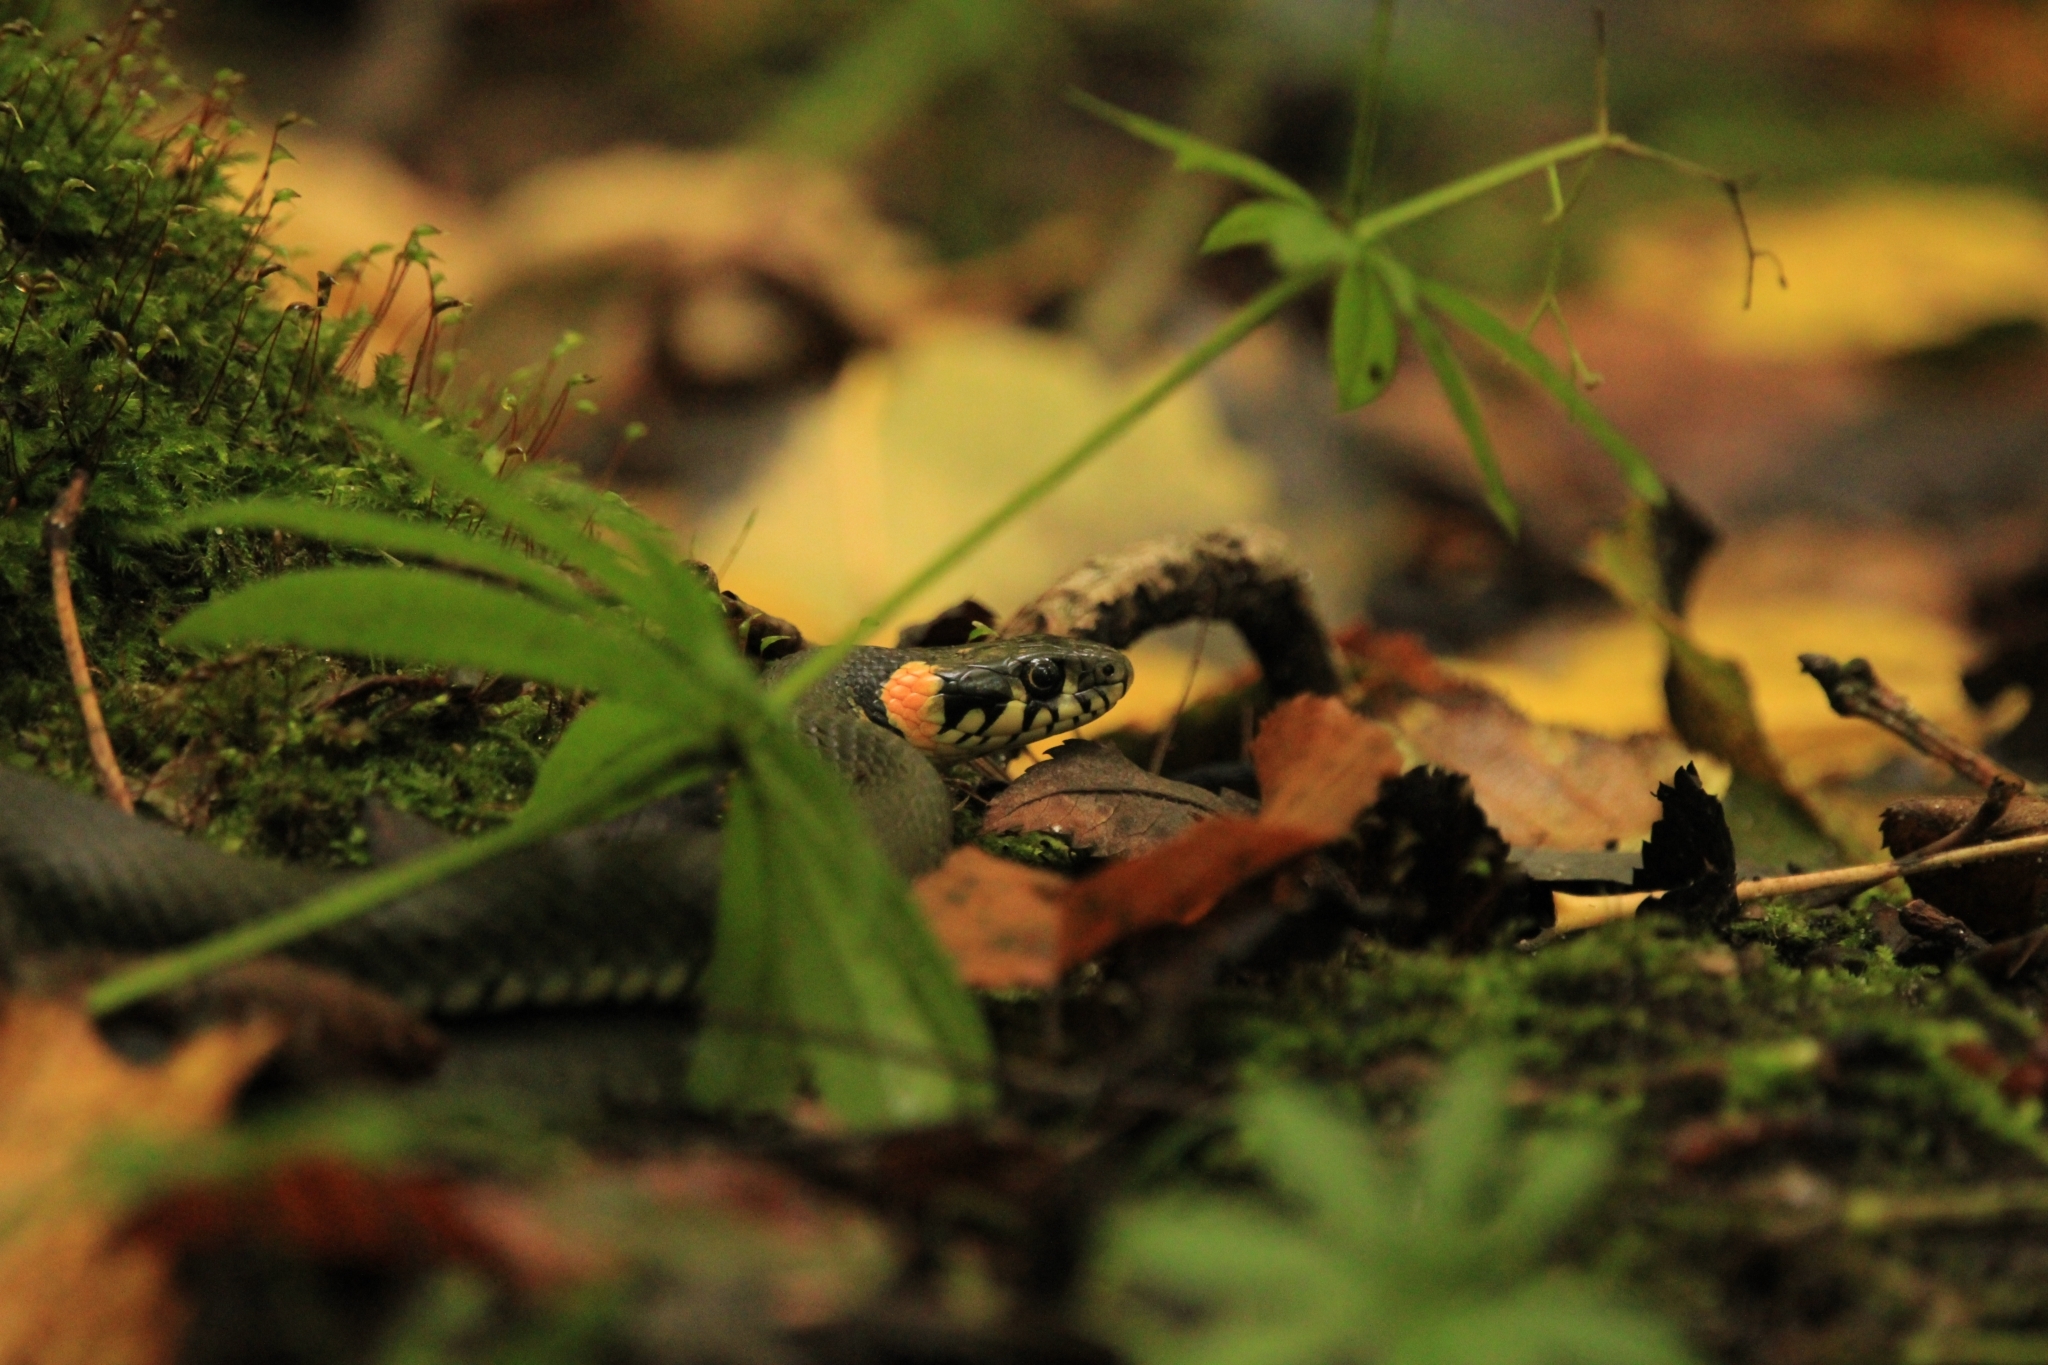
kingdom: Animalia
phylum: Chordata
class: Squamata
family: Colubridae
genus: Natrix
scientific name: Natrix natrix
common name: Grass snake
